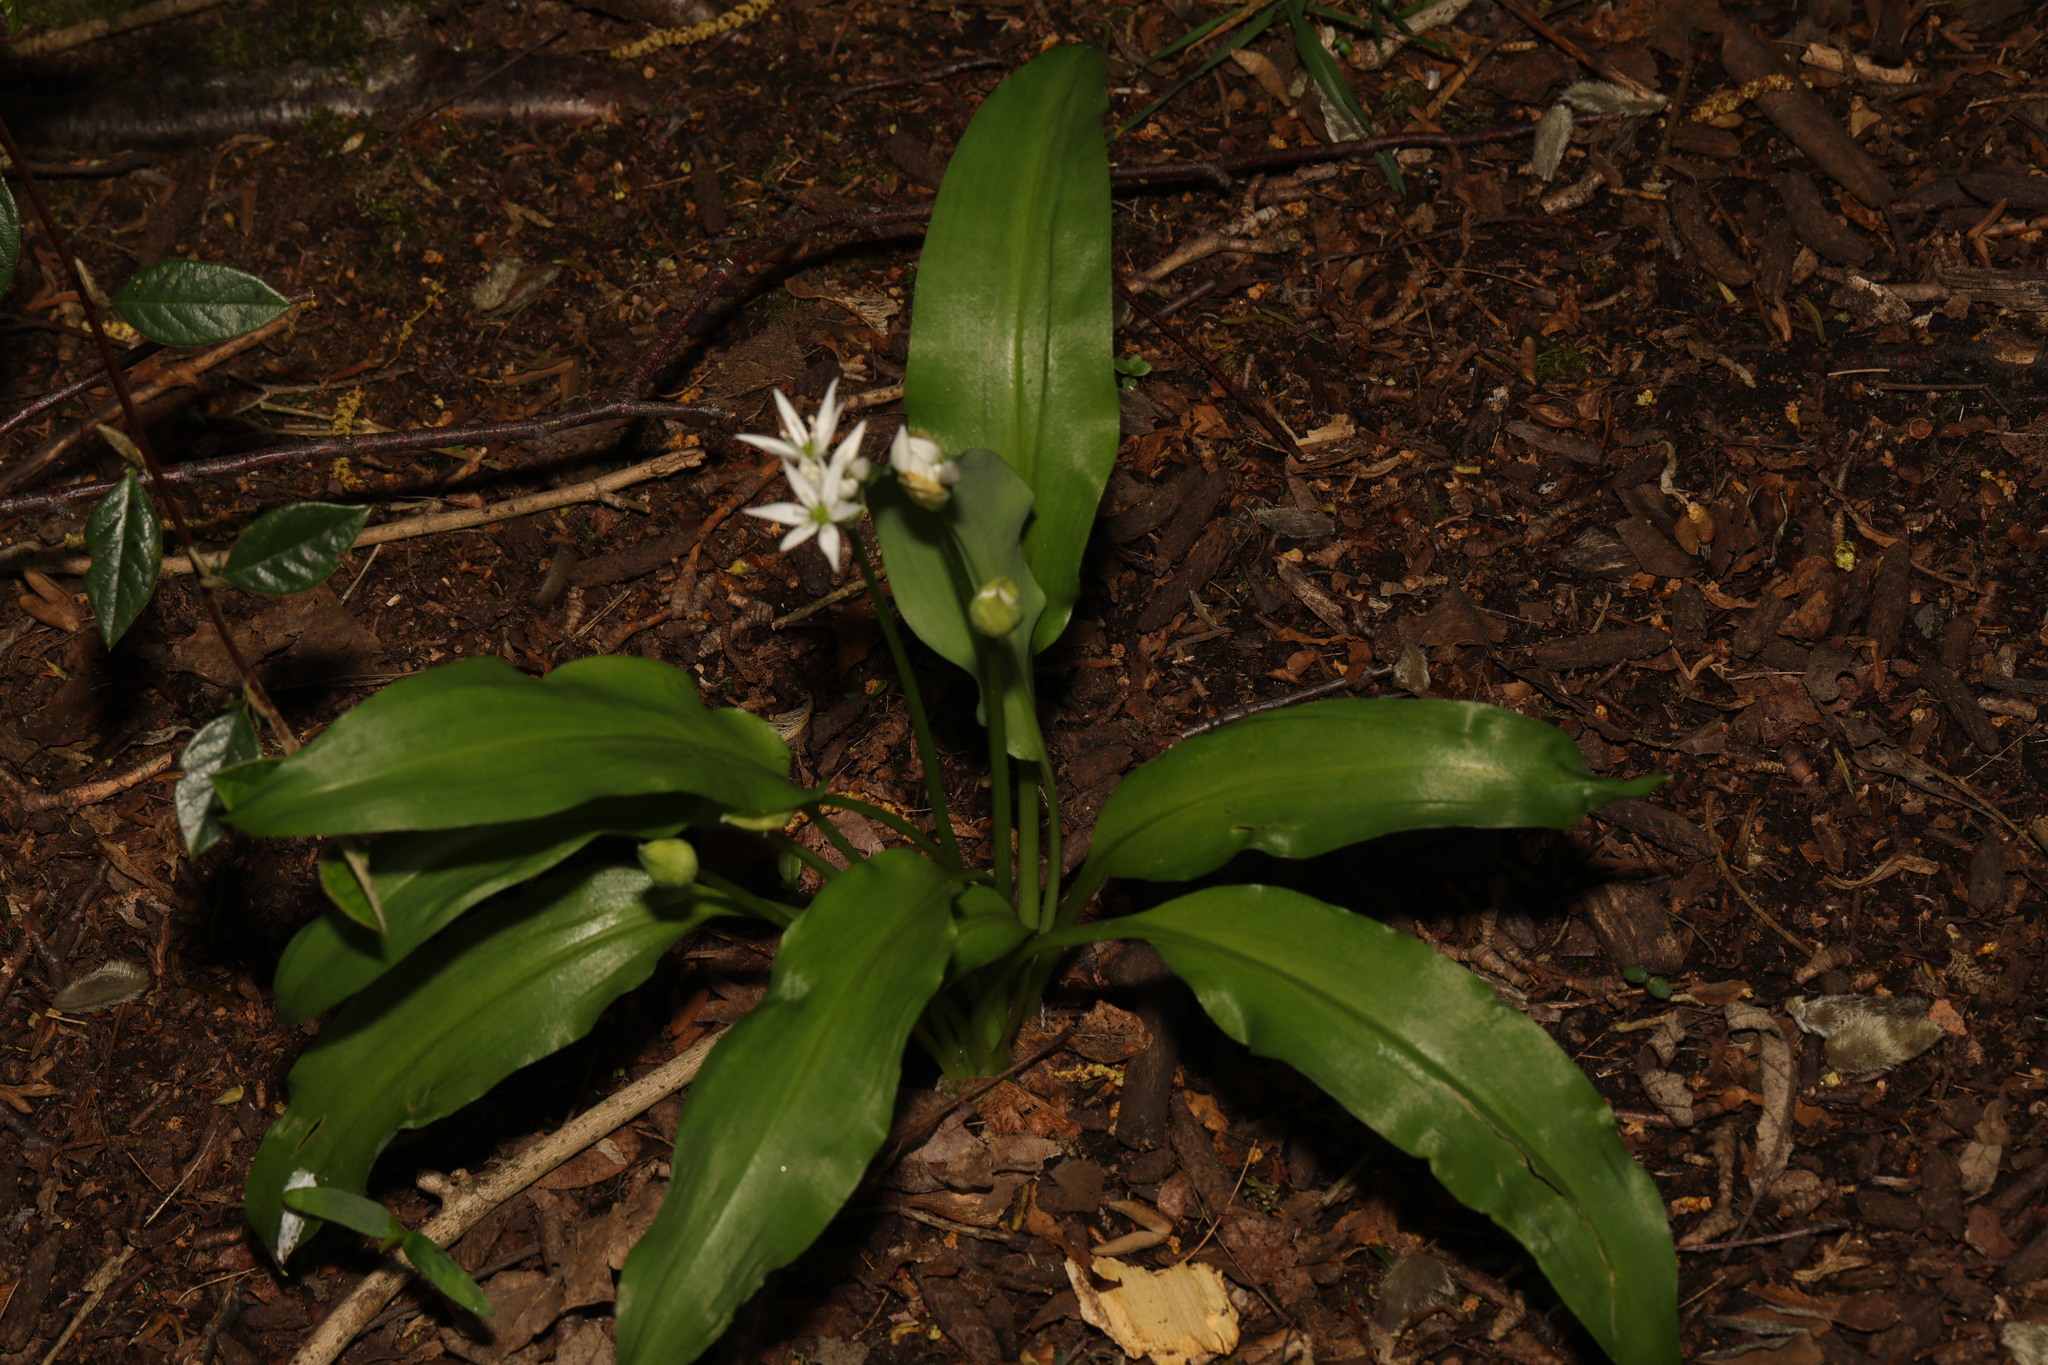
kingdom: Plantae
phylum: Tracheophyta
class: Liliopsida
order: Asparagales
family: Amaryllidaceae
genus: Allium
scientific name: Allium ursinum
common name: Ramsons
